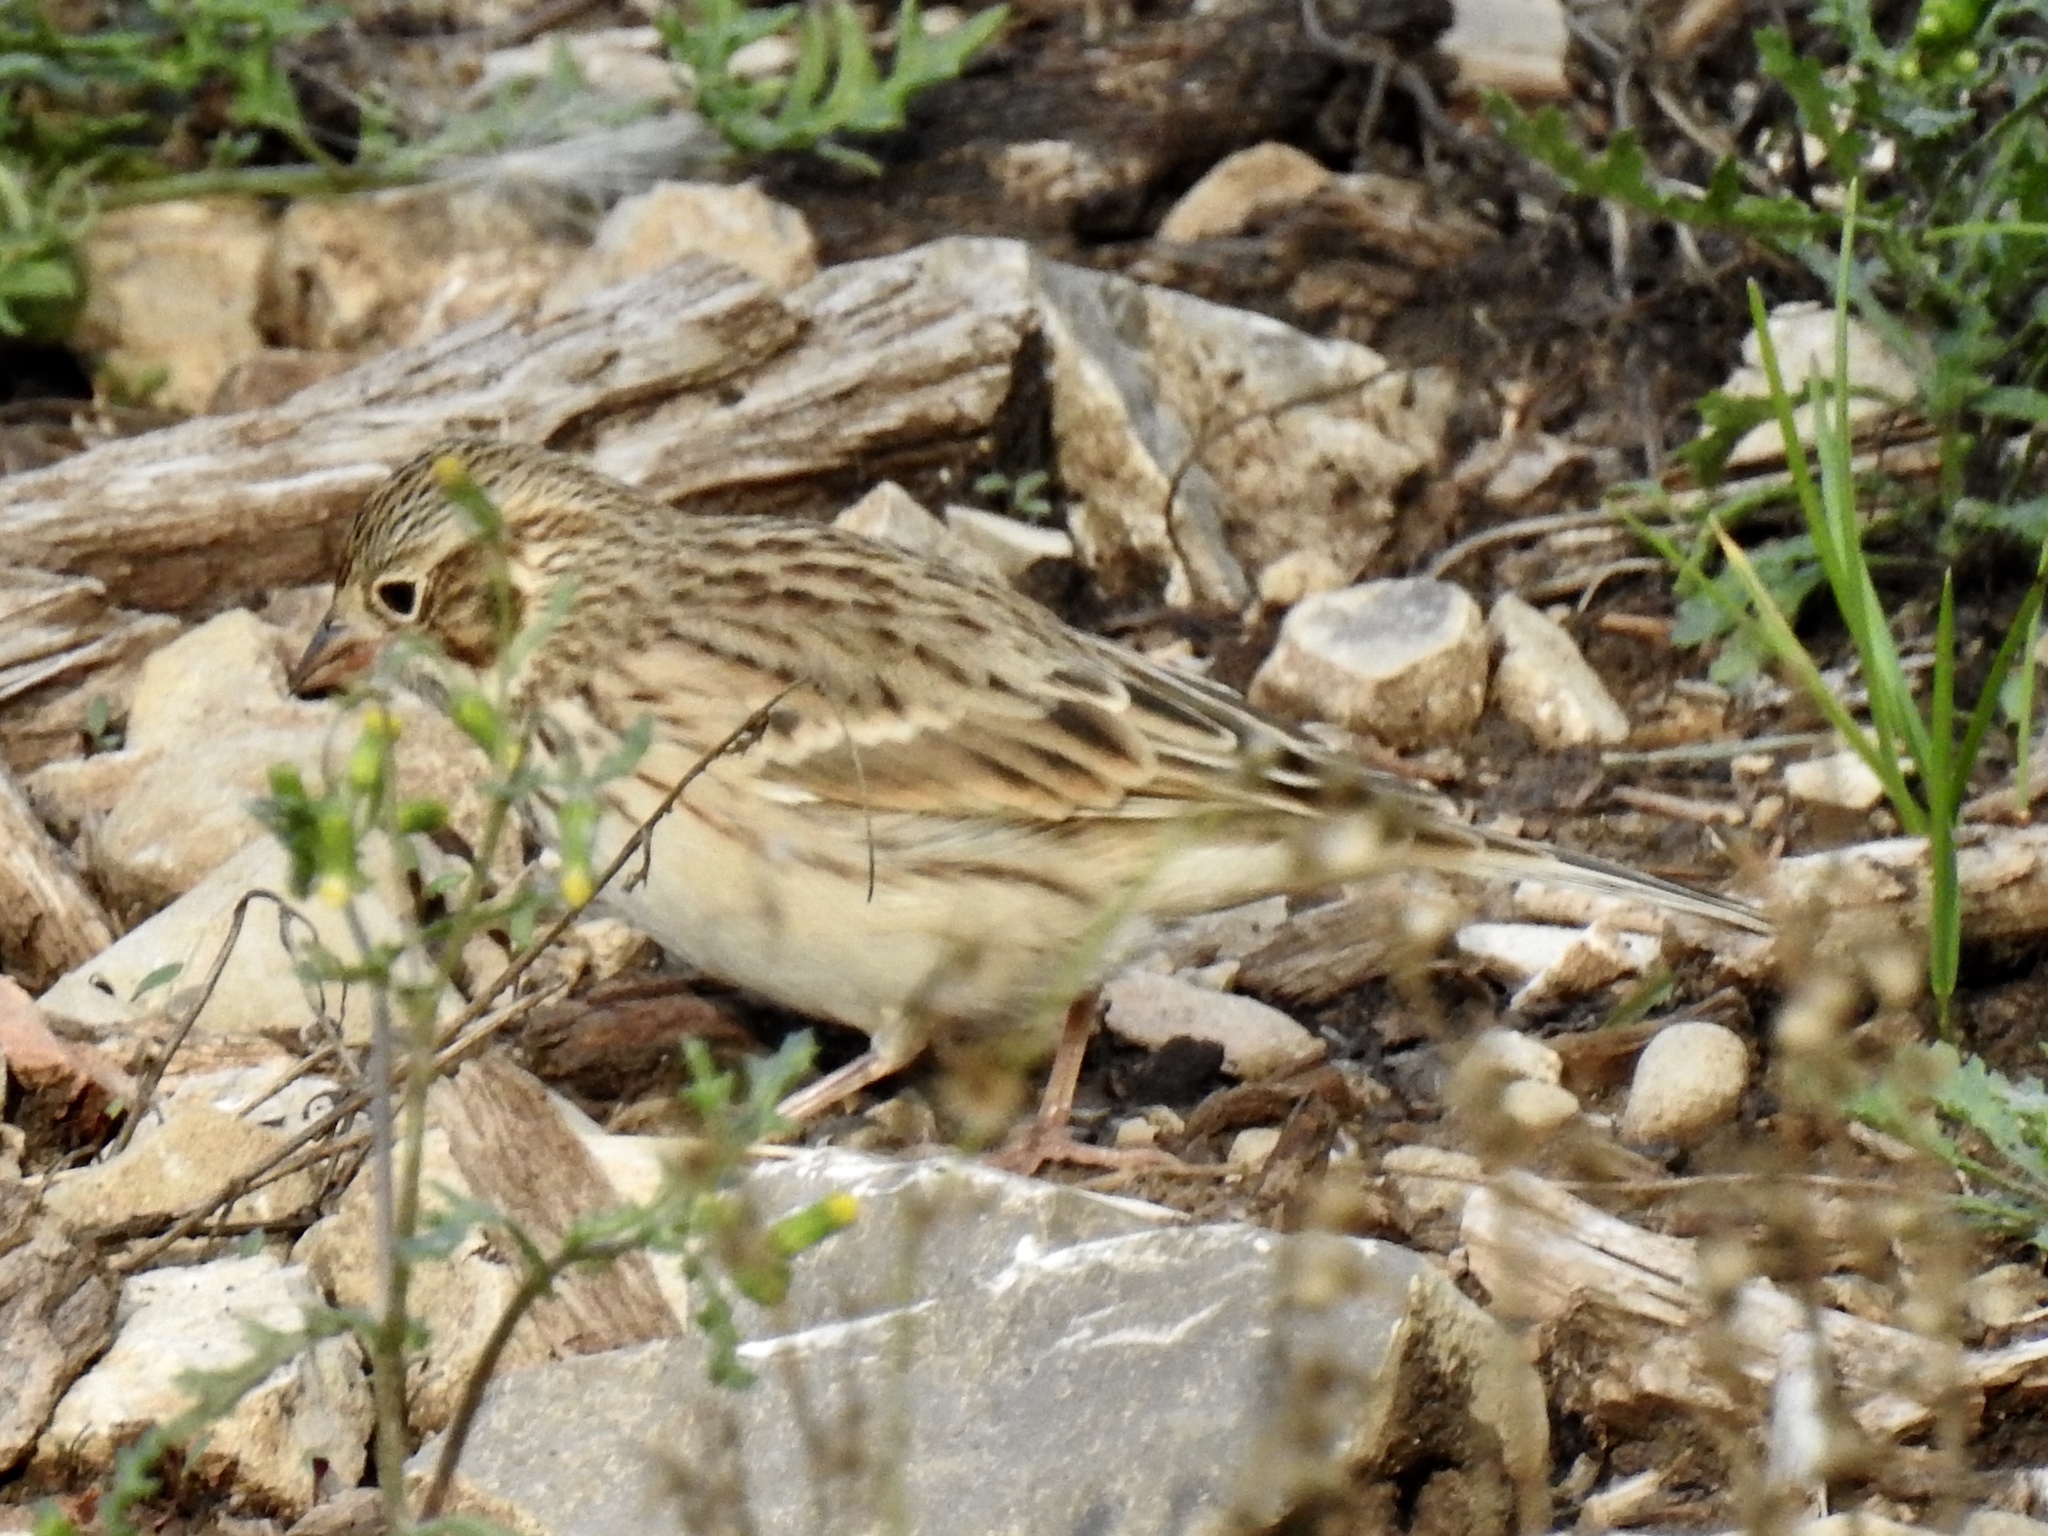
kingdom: Animalia
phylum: Chordata
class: Aves
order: Passeriformes
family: Passerellidae
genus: Pooecetes
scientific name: Pooecetes gramineus
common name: Vesper sparrow
